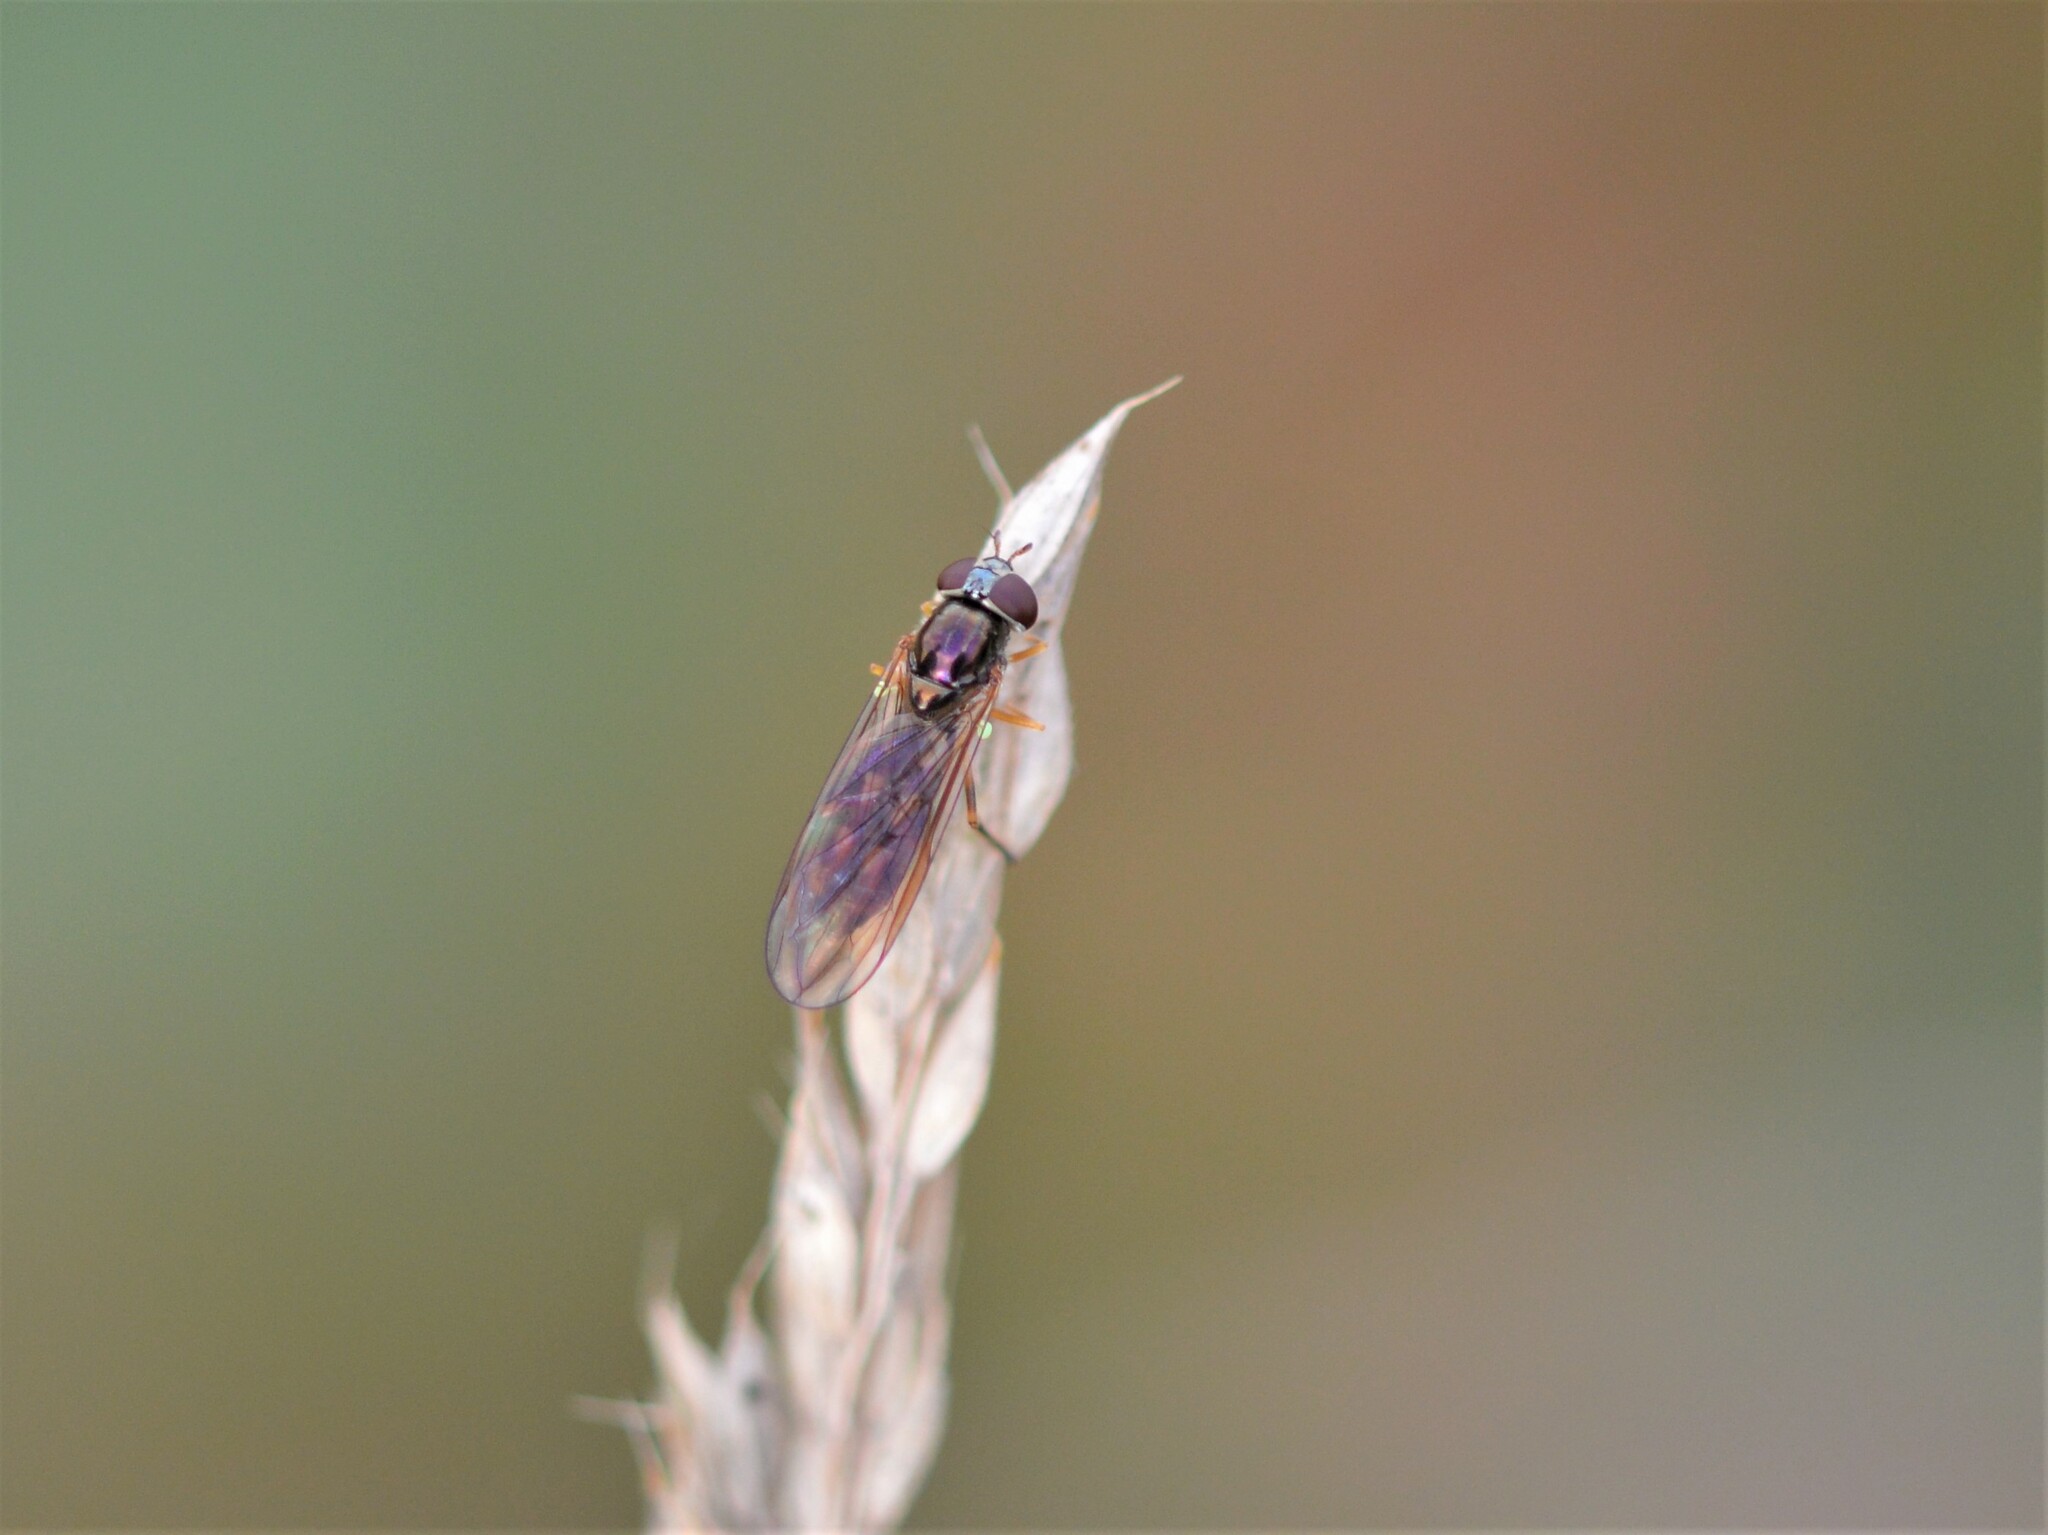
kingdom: Animalia
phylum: Arthropoda
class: Insecta
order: Diptera
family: Syrphidae
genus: Melanostoma
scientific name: Melanostoma scalare
